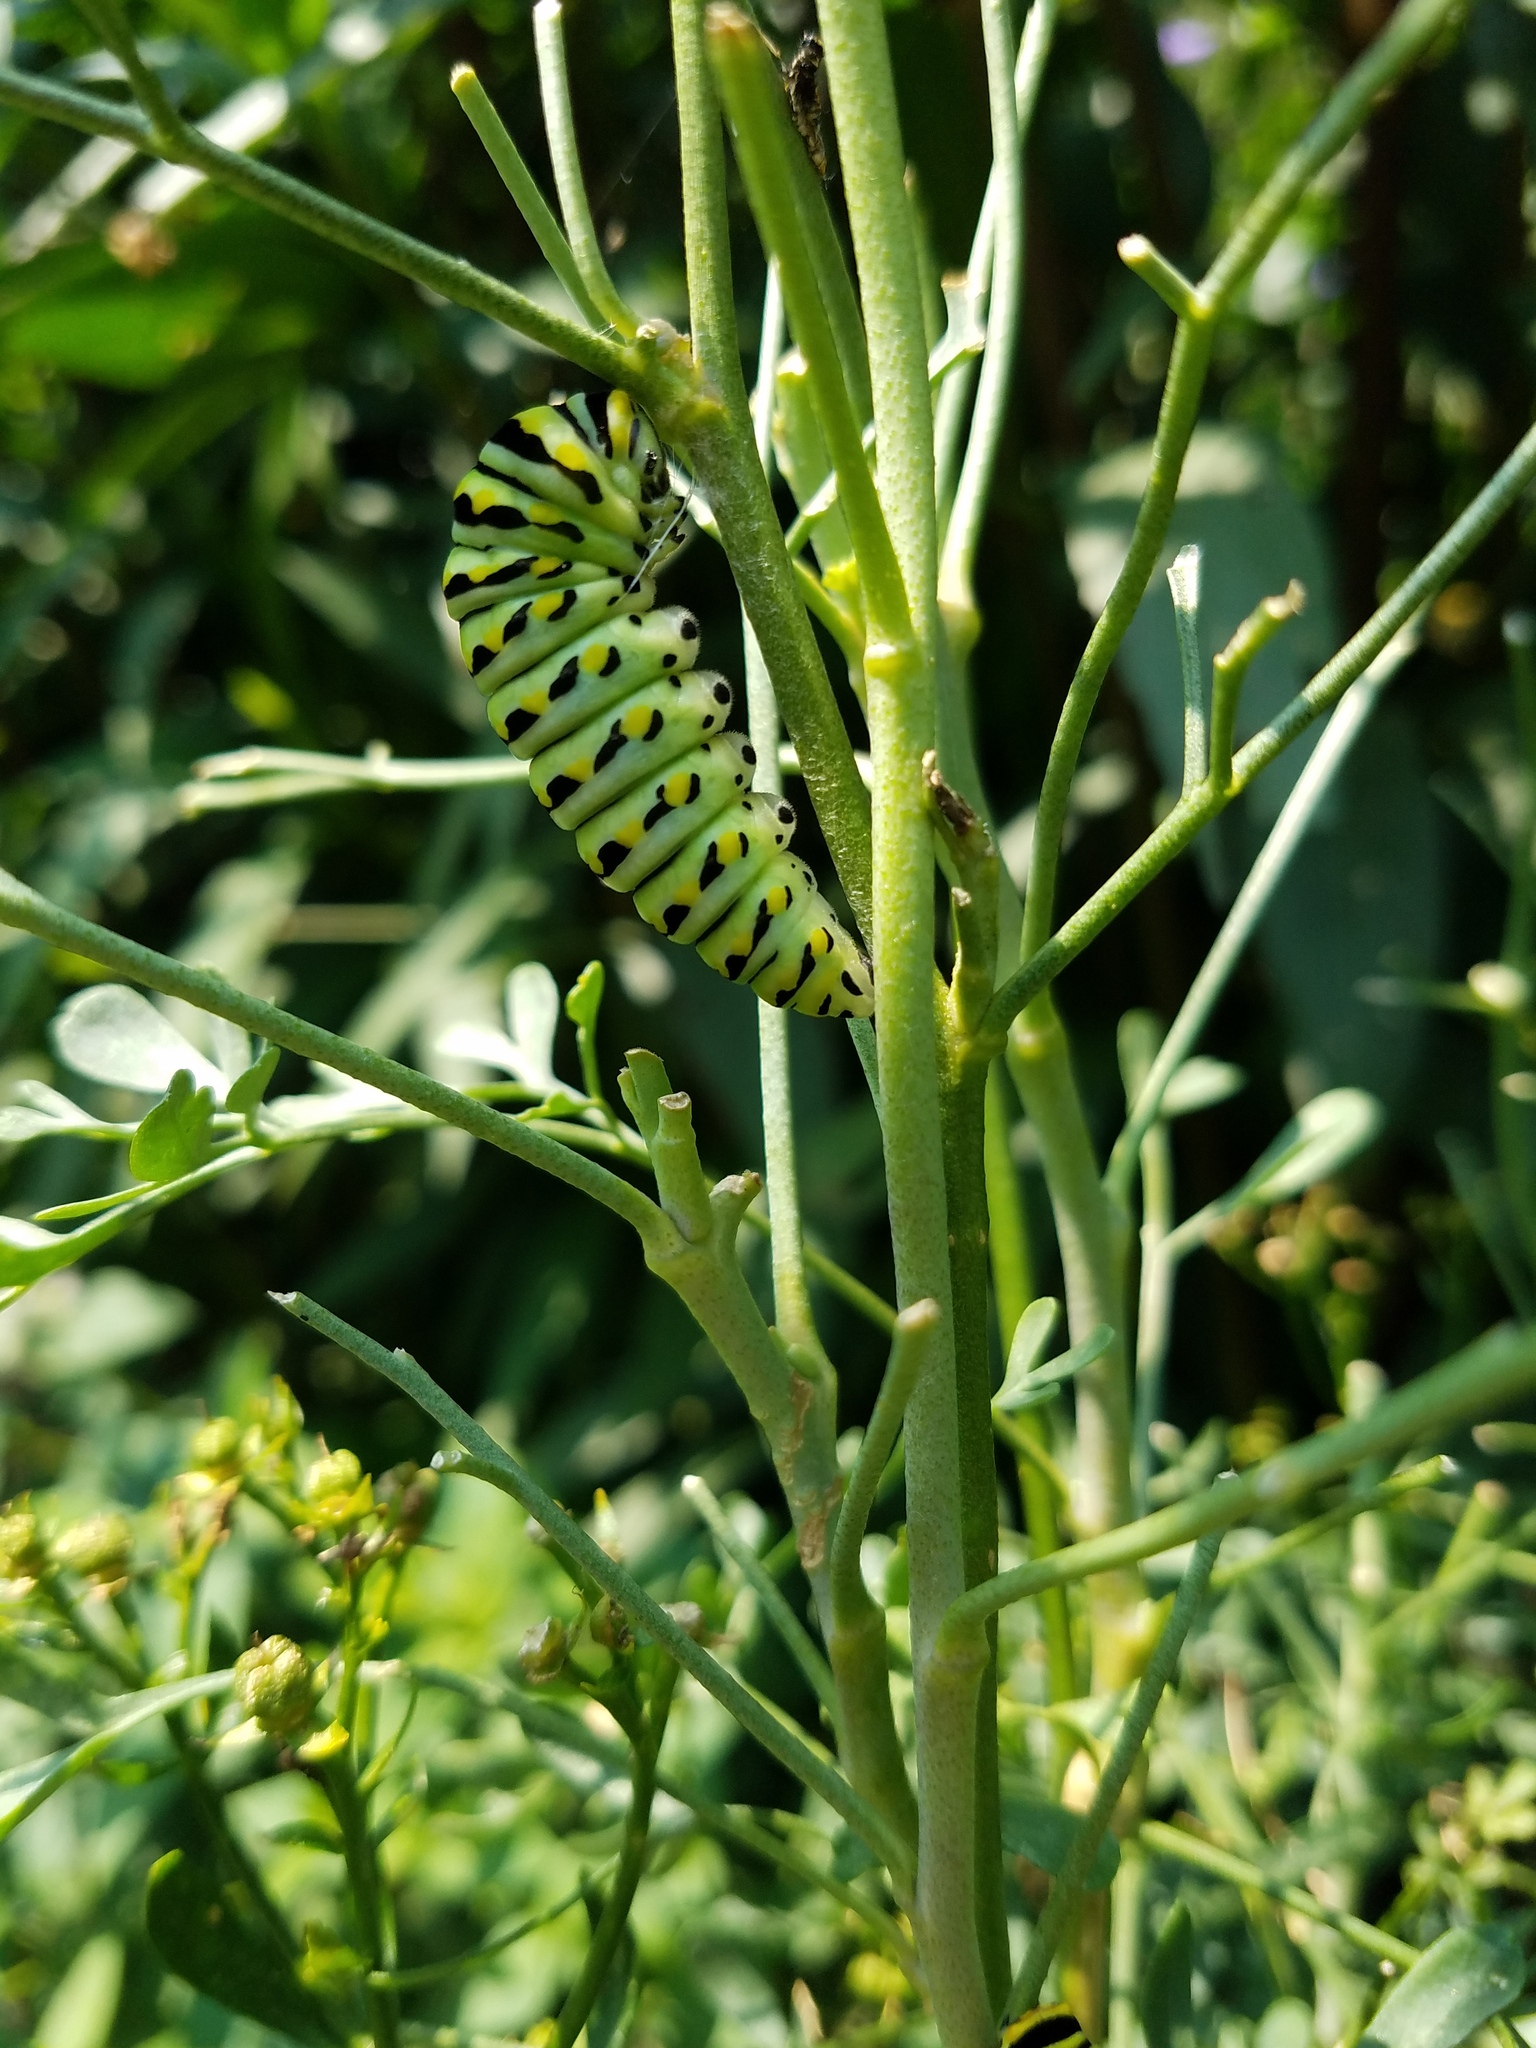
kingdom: Animalia
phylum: Arthropoda
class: Insecta
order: Lepidoptera
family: Papilionidae
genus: Papilio
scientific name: Papilio polyxenes
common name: Black swallowtail
